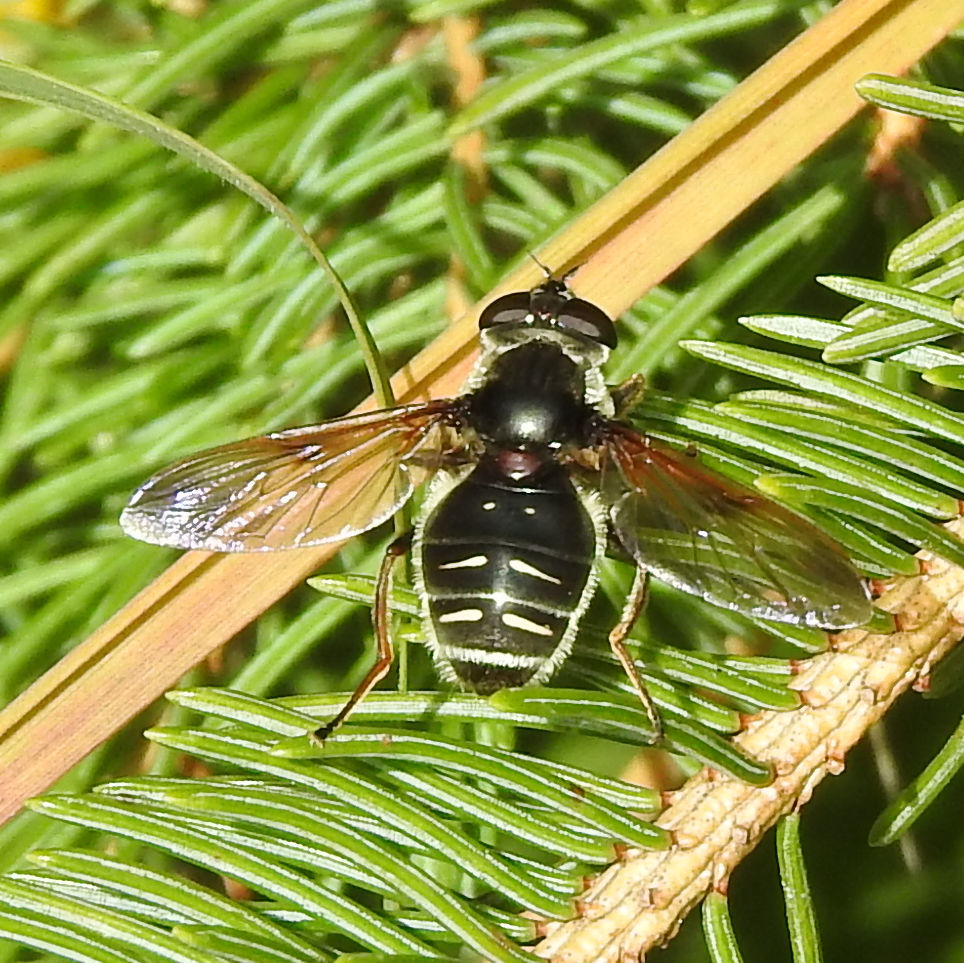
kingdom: Animalia
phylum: Arthropoda
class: Insecta
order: Diptera
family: Syrphidae
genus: Sericomyia
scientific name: Sericomyia militaris
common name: Narrow-banded pond fly
